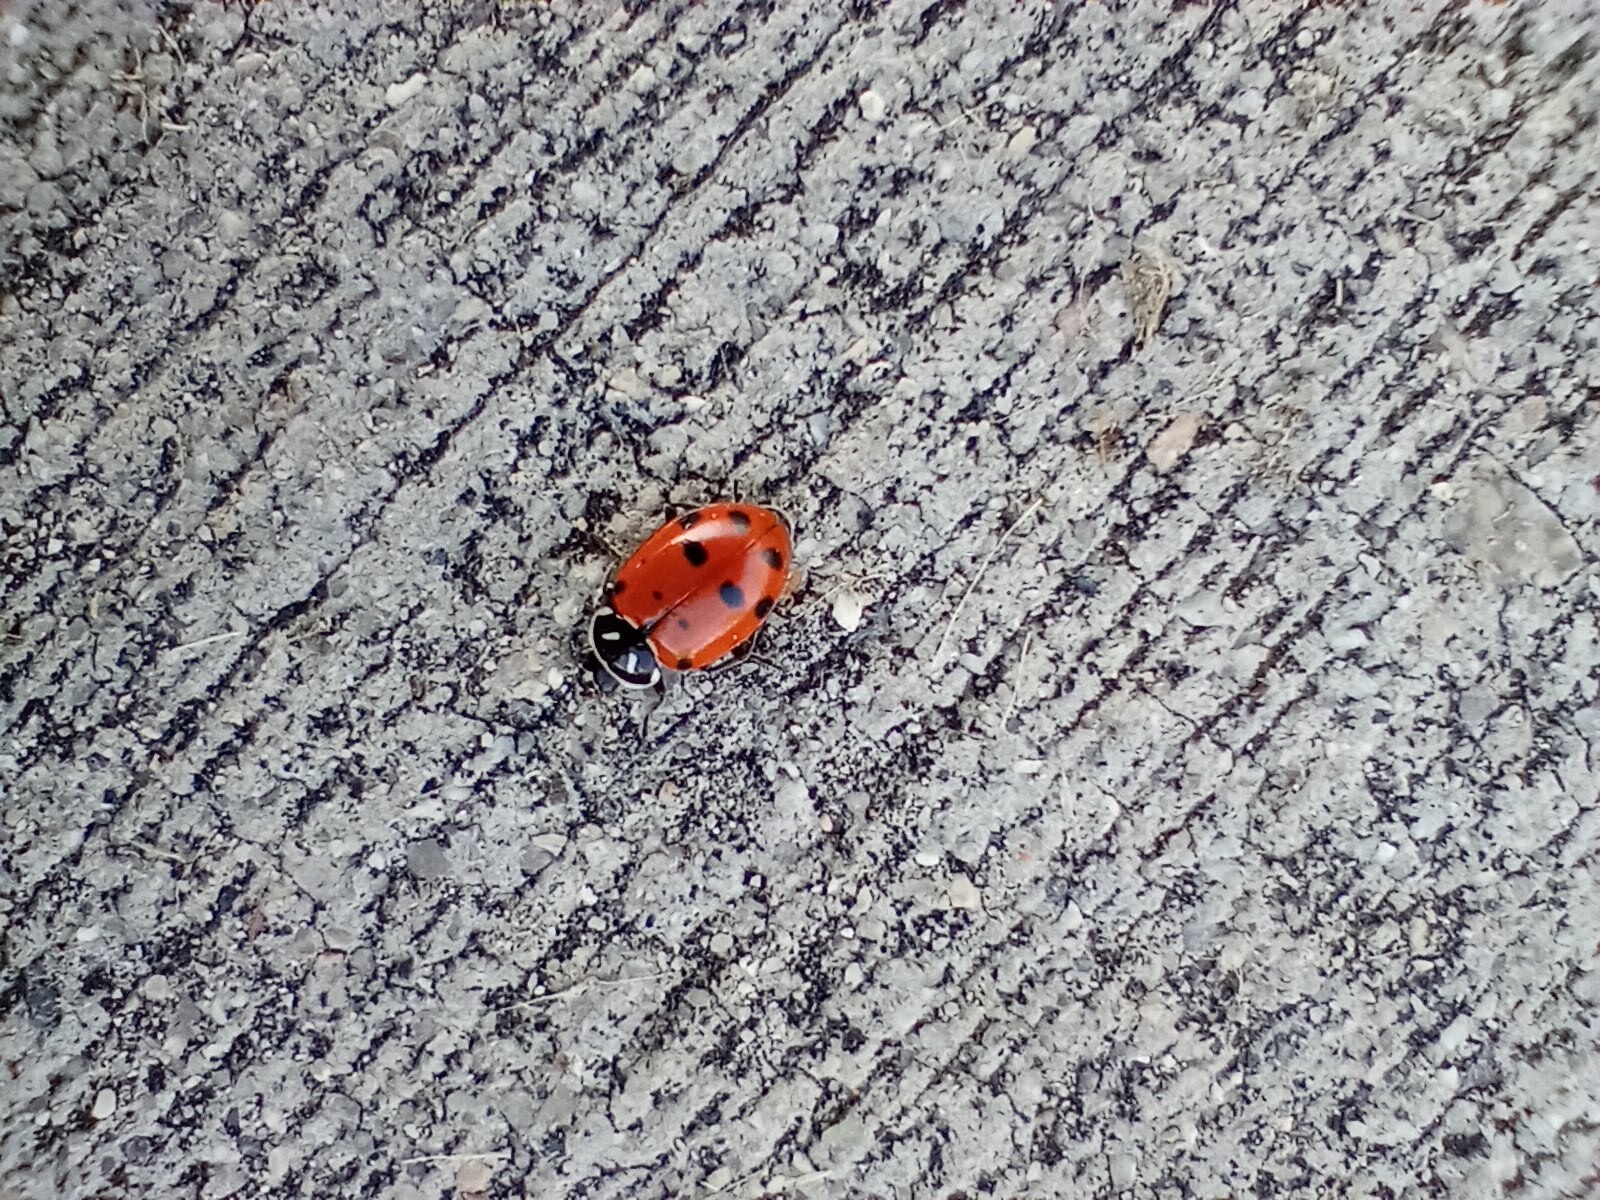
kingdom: Animalia
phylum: Arthropoda
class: Insecta
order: Coleoptera
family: Coccinellidae
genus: Hippodamia
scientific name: Hippodamia convergens
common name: Convergent lady beetle
